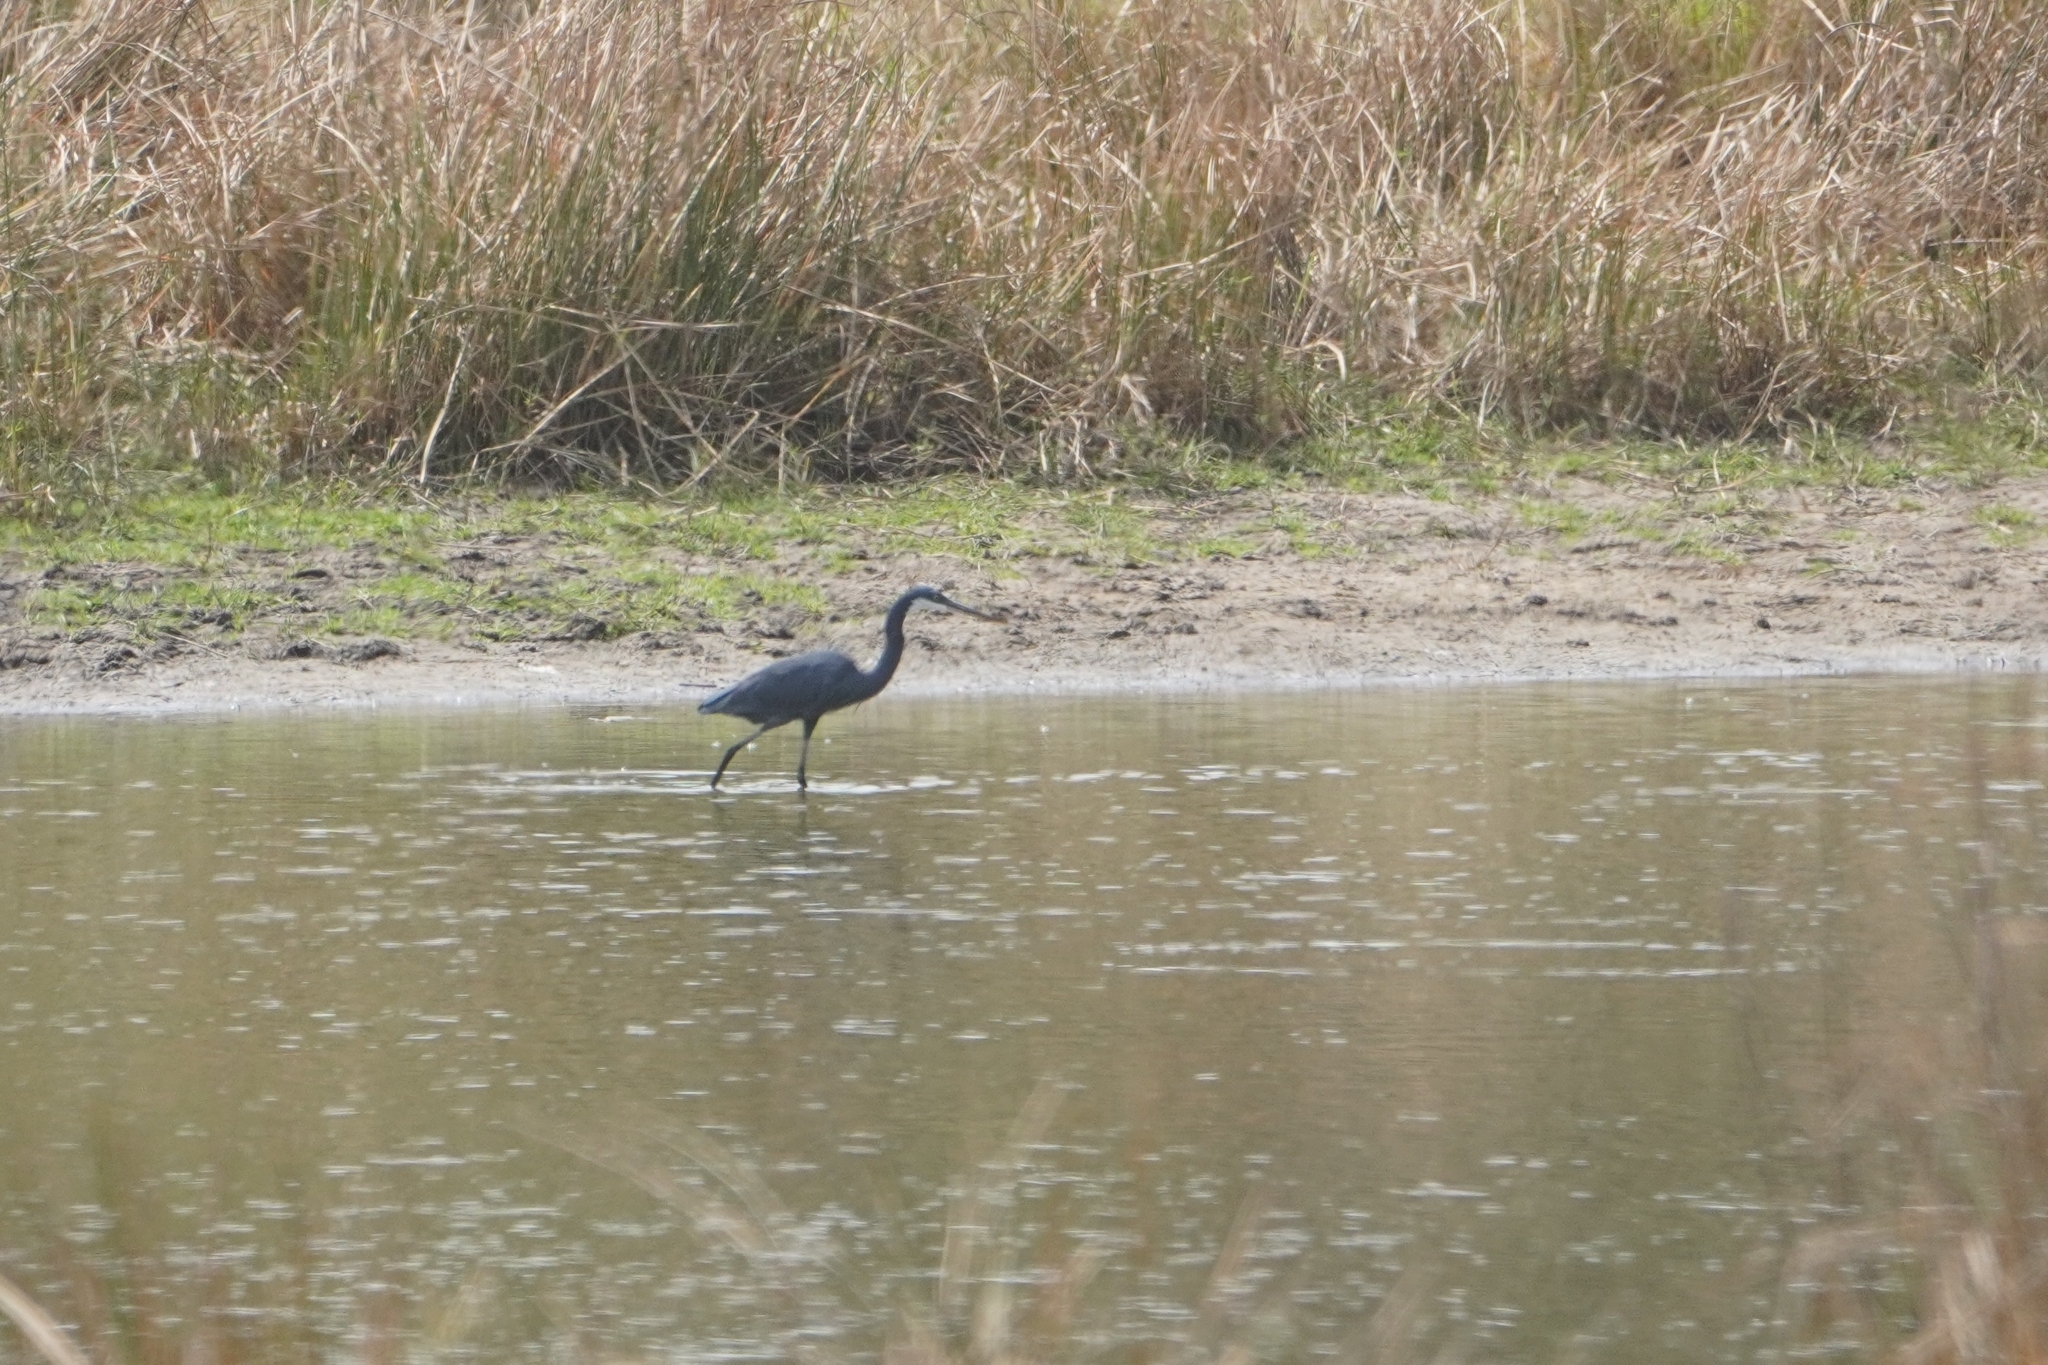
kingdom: Animalia
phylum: Chordata
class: Aves
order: Pelecaniformes
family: Ardeidae
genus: Egretta
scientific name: Egretta gularis
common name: Western reef-heron
